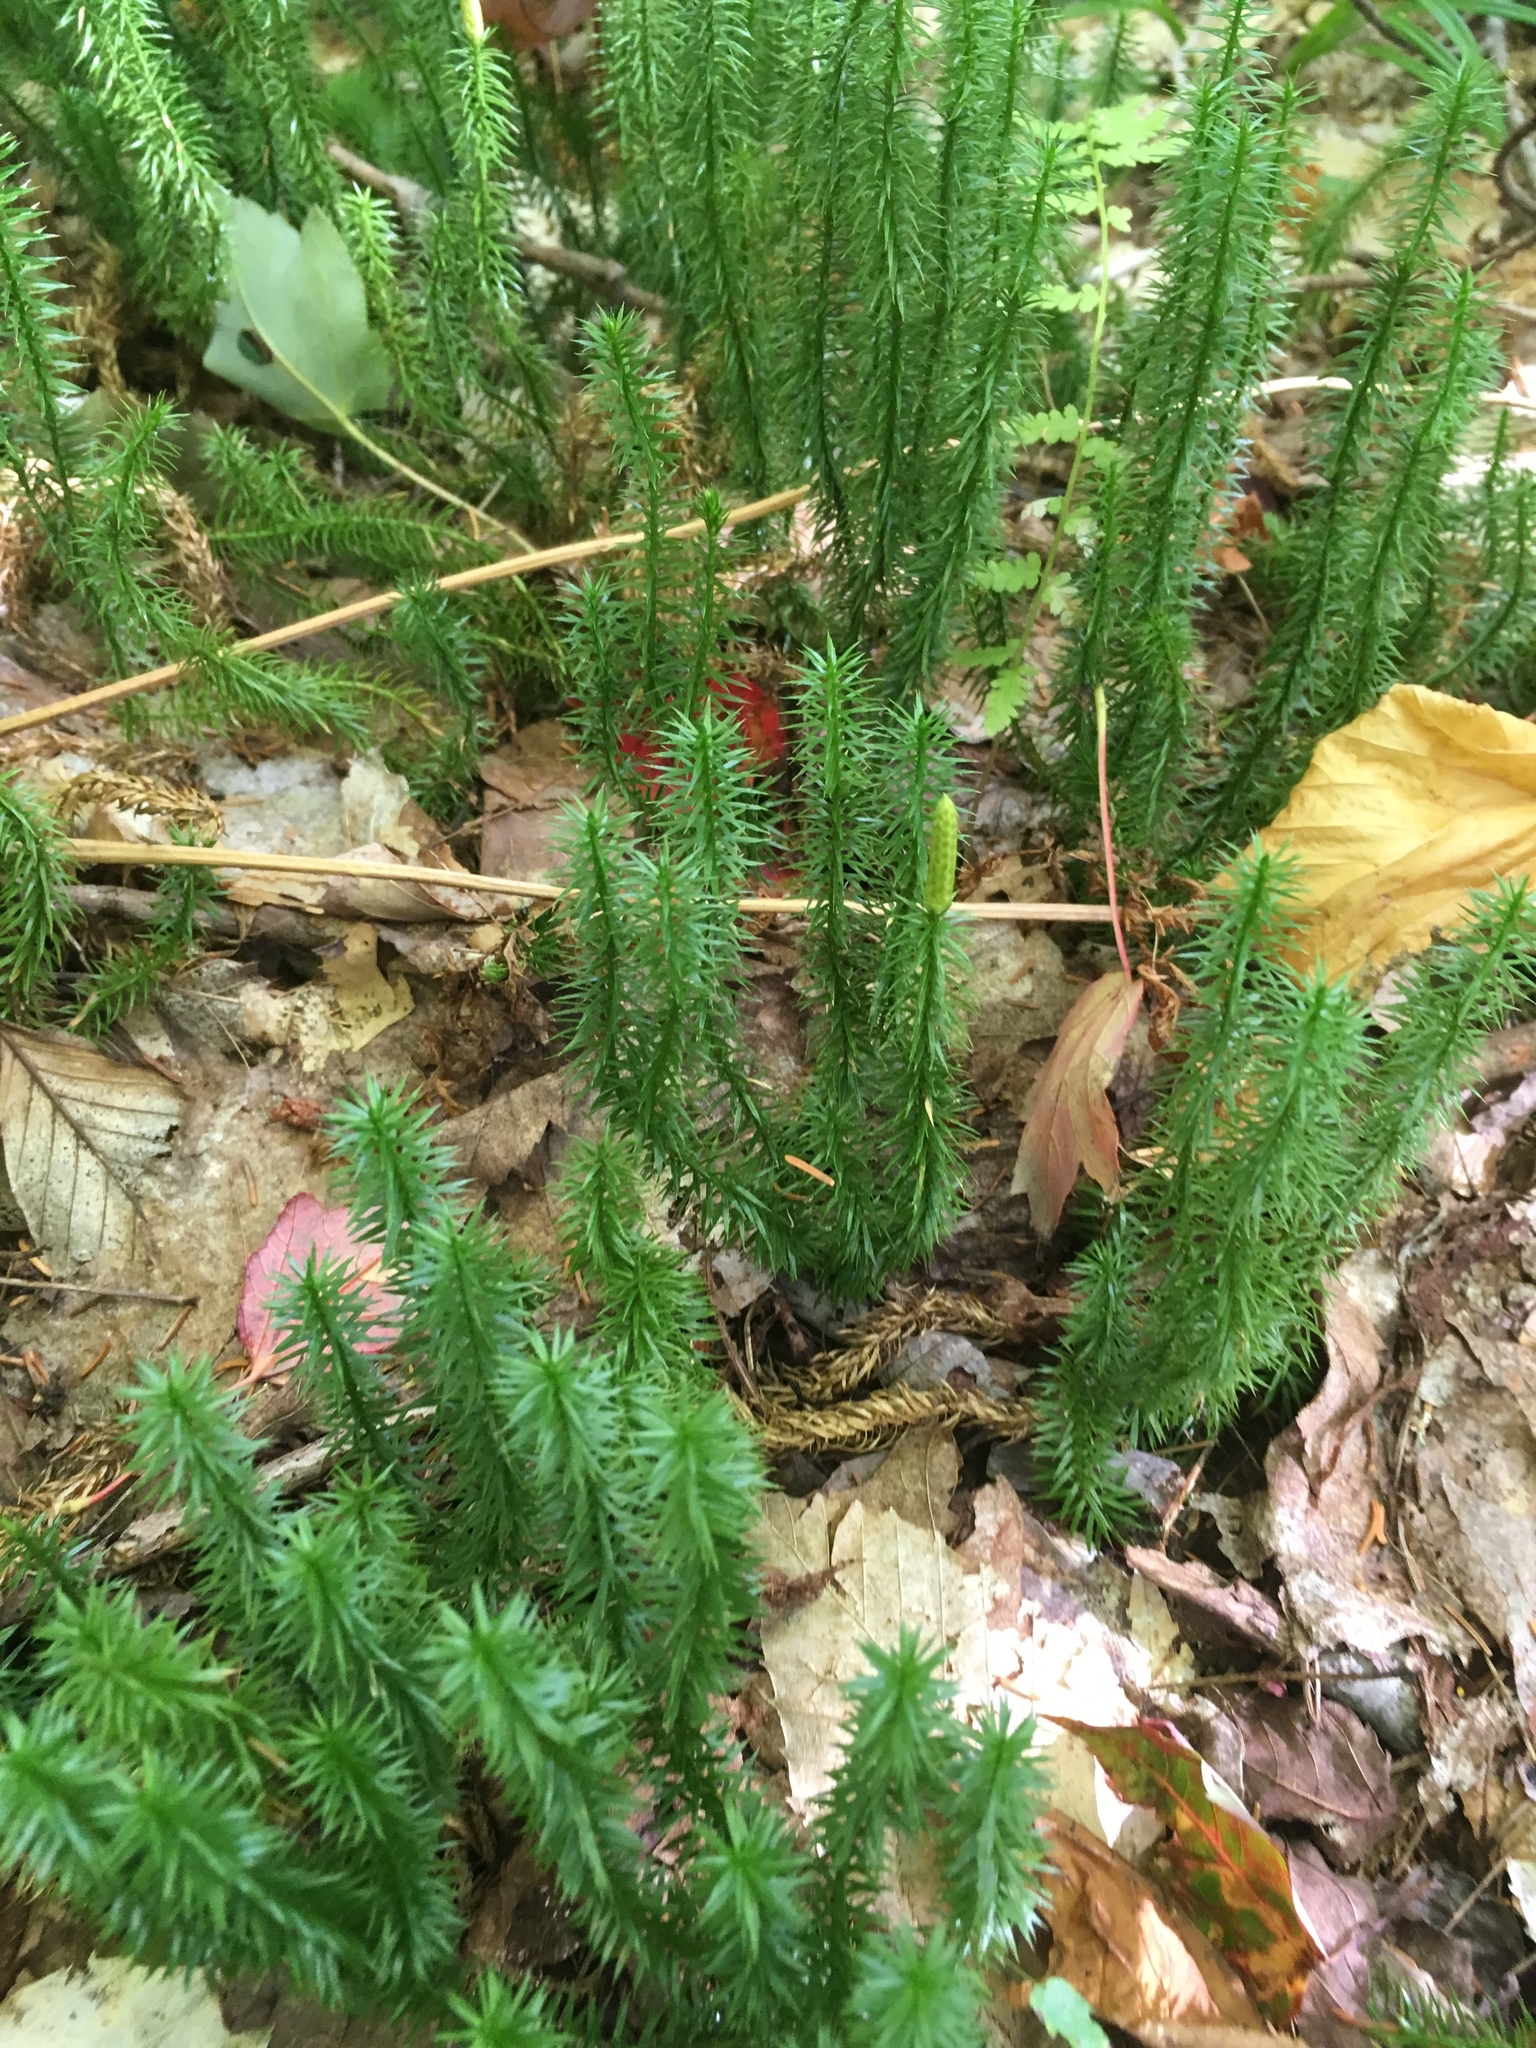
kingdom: Plantae
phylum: Tracheophyta
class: Lycopodiopsida
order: Lycopodiales
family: Lycopodiaceae
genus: Spinulum
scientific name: Spinulum annotinum
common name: Interrupted club-moss
